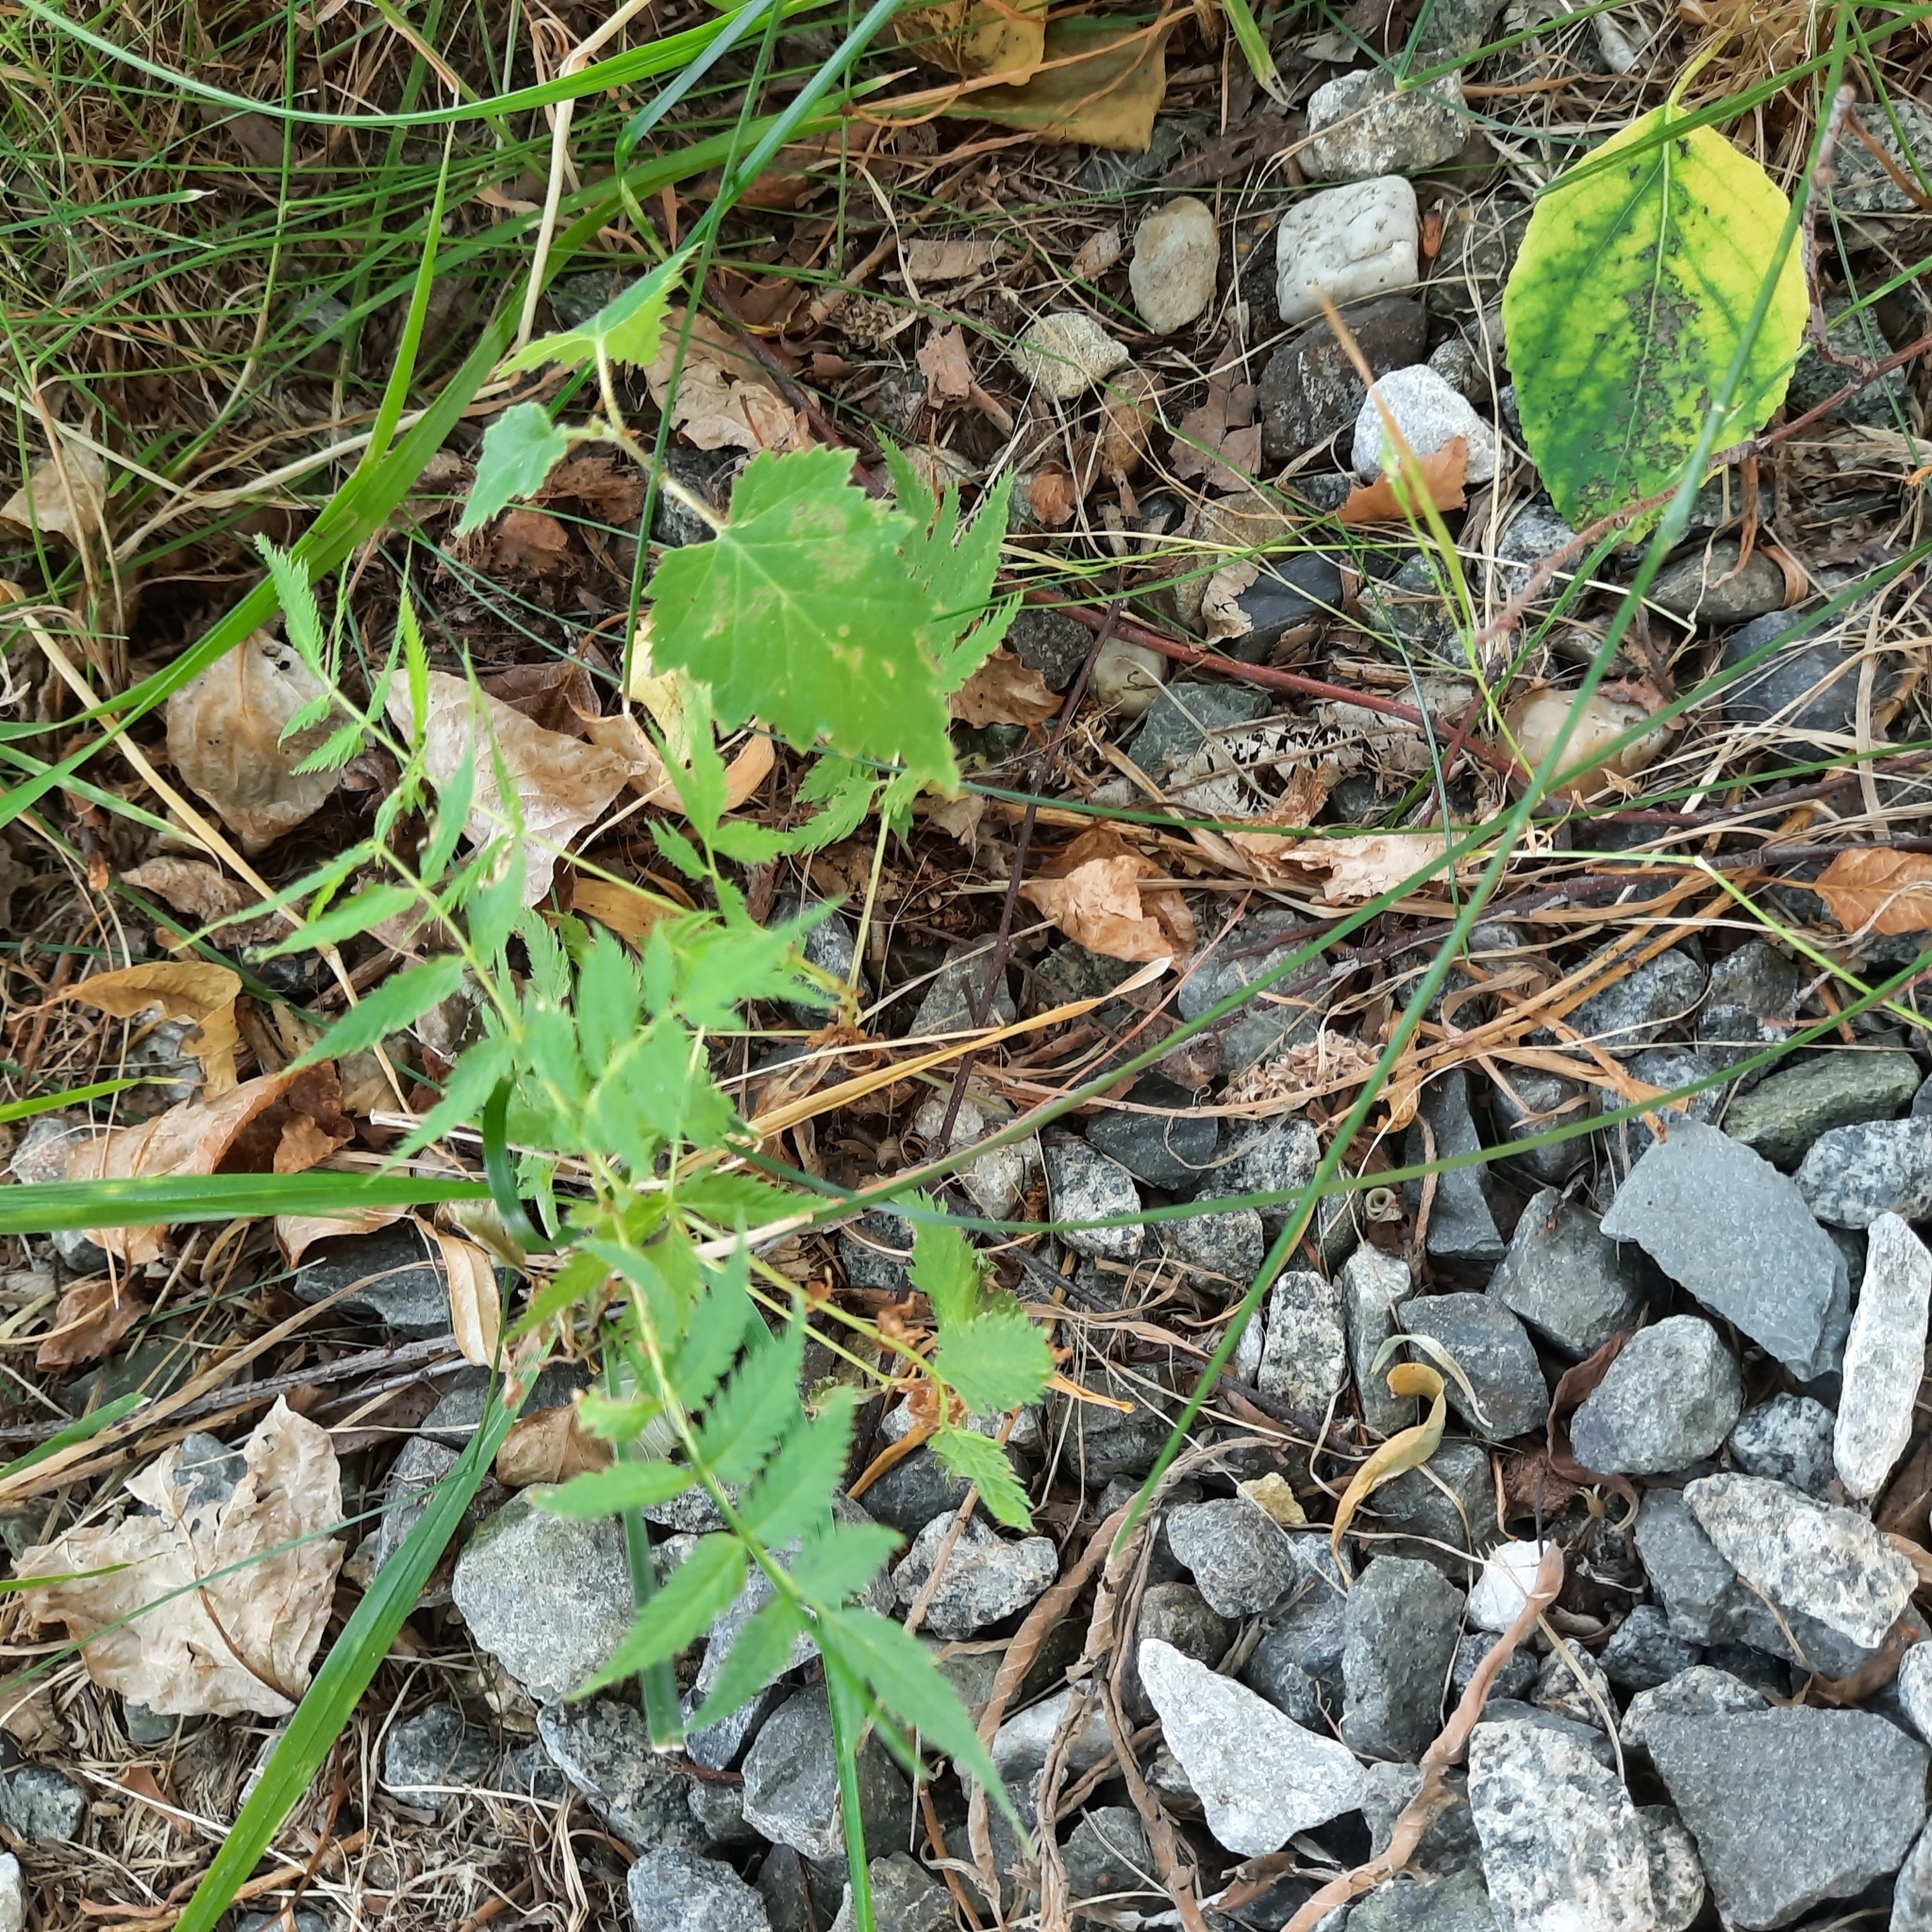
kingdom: Plantae
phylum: Tracheophyta
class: Magnoliopsida
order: Rosales
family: Rosaceae
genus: Sorbaria
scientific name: Sorbaria sorbifolia
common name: False spiraea
